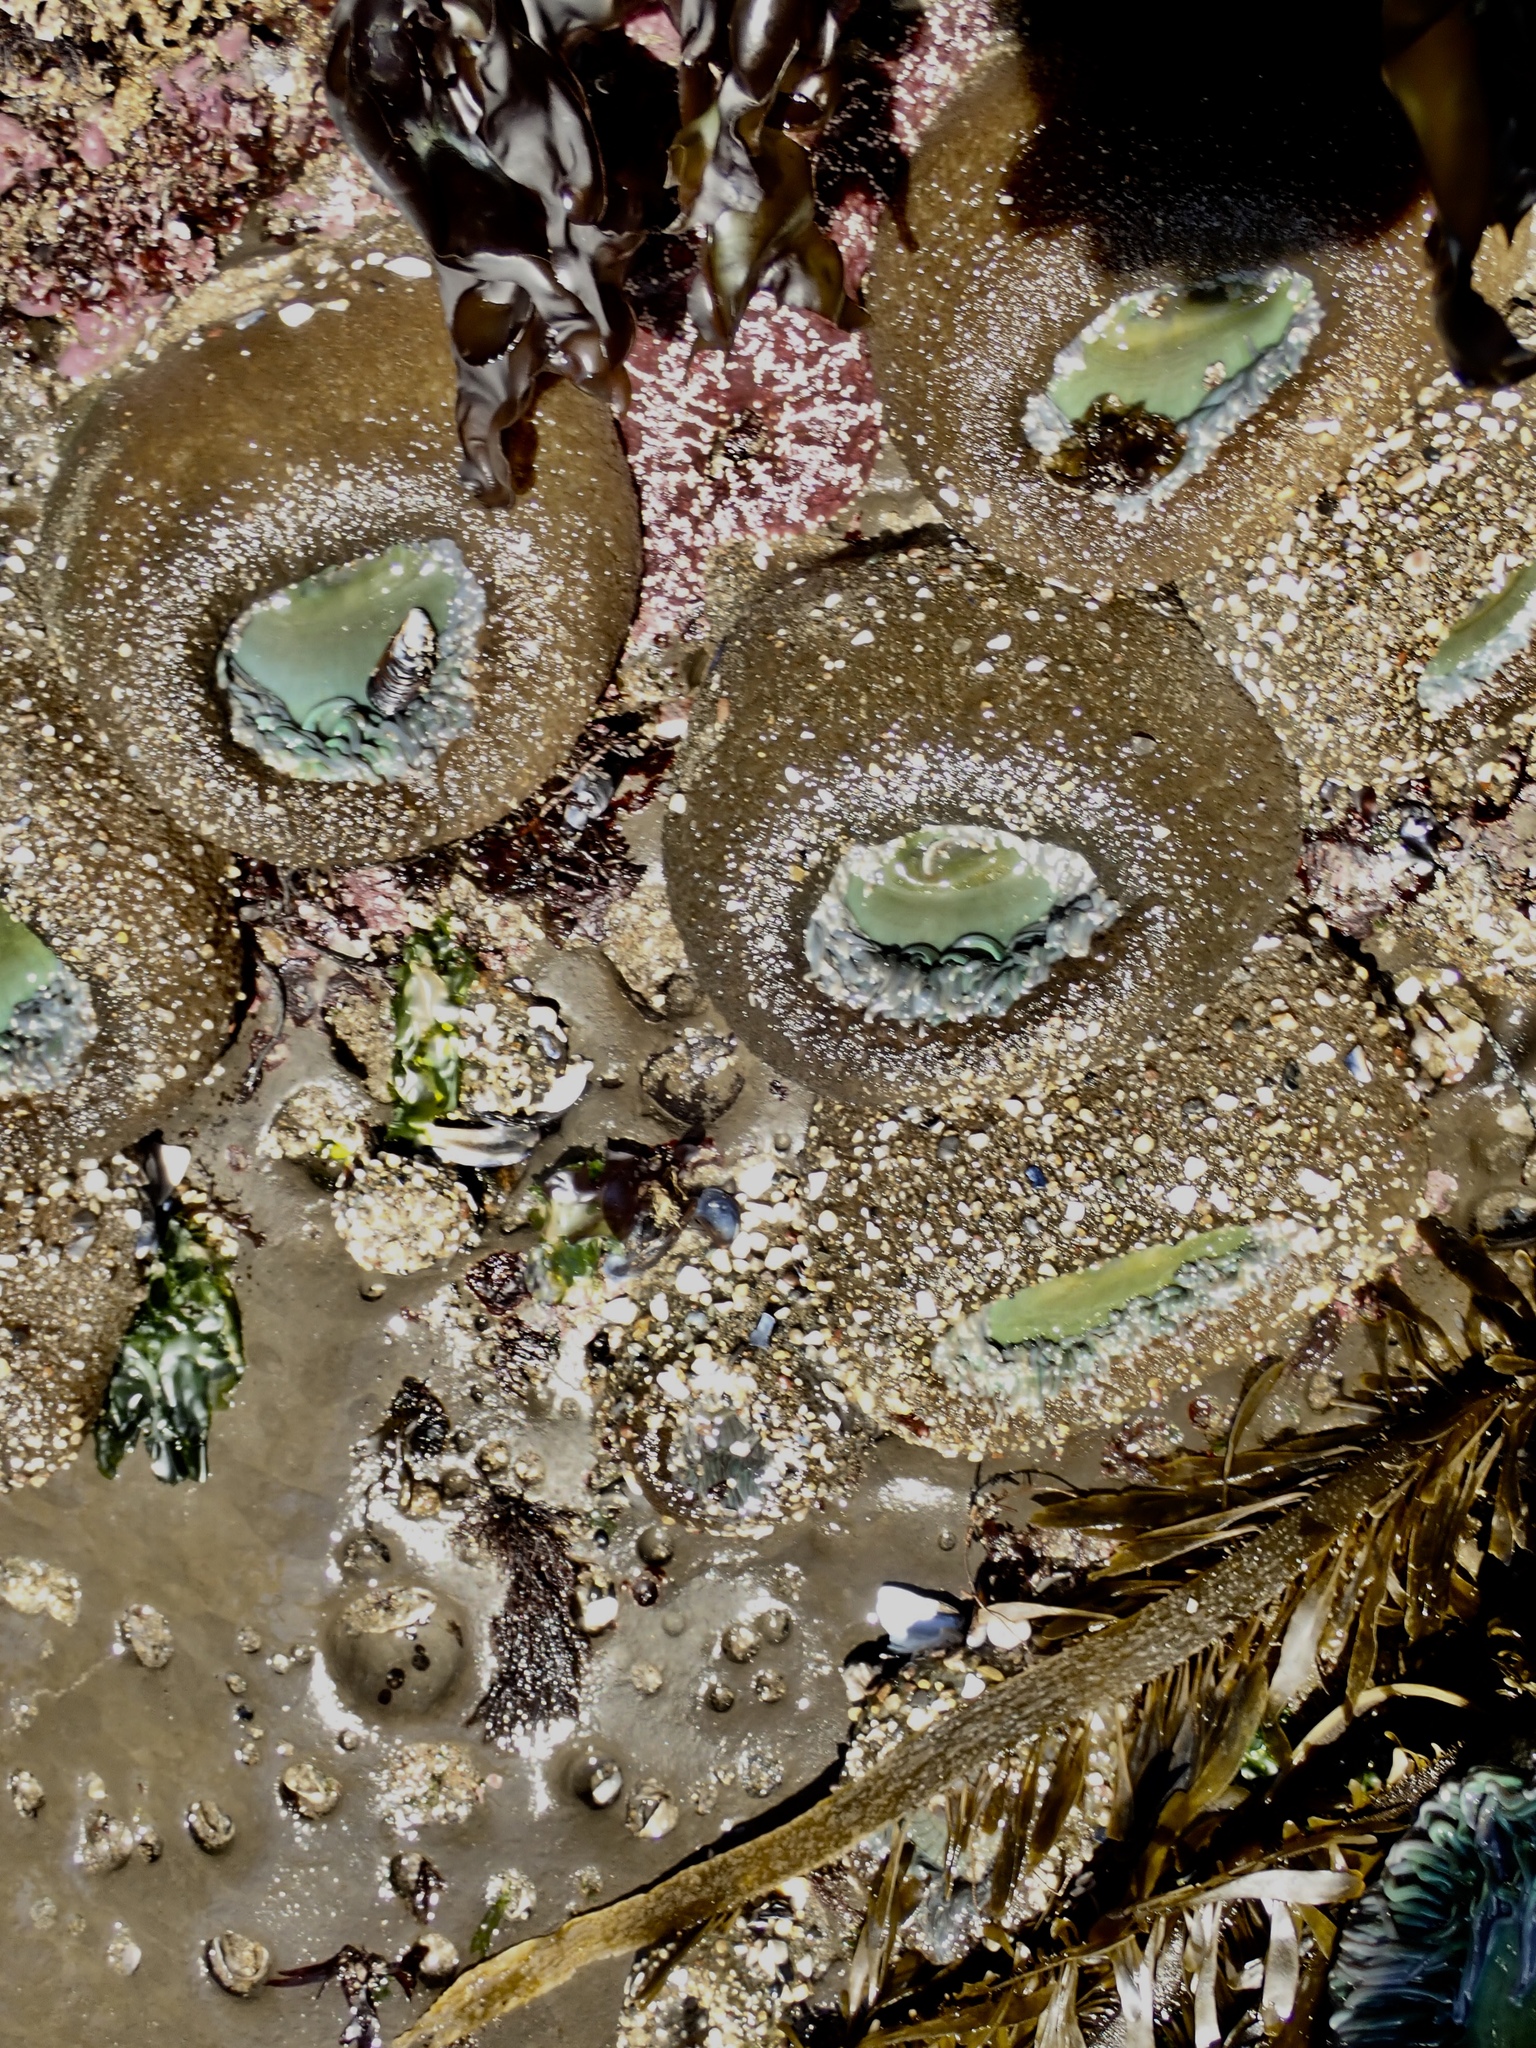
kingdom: Animalia
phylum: Cnidaria
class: Anthozoa
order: Actiniaria
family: Actiniidae
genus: Anthopleura
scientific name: Anthopleura xanthogrammica
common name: Giant green anemone
